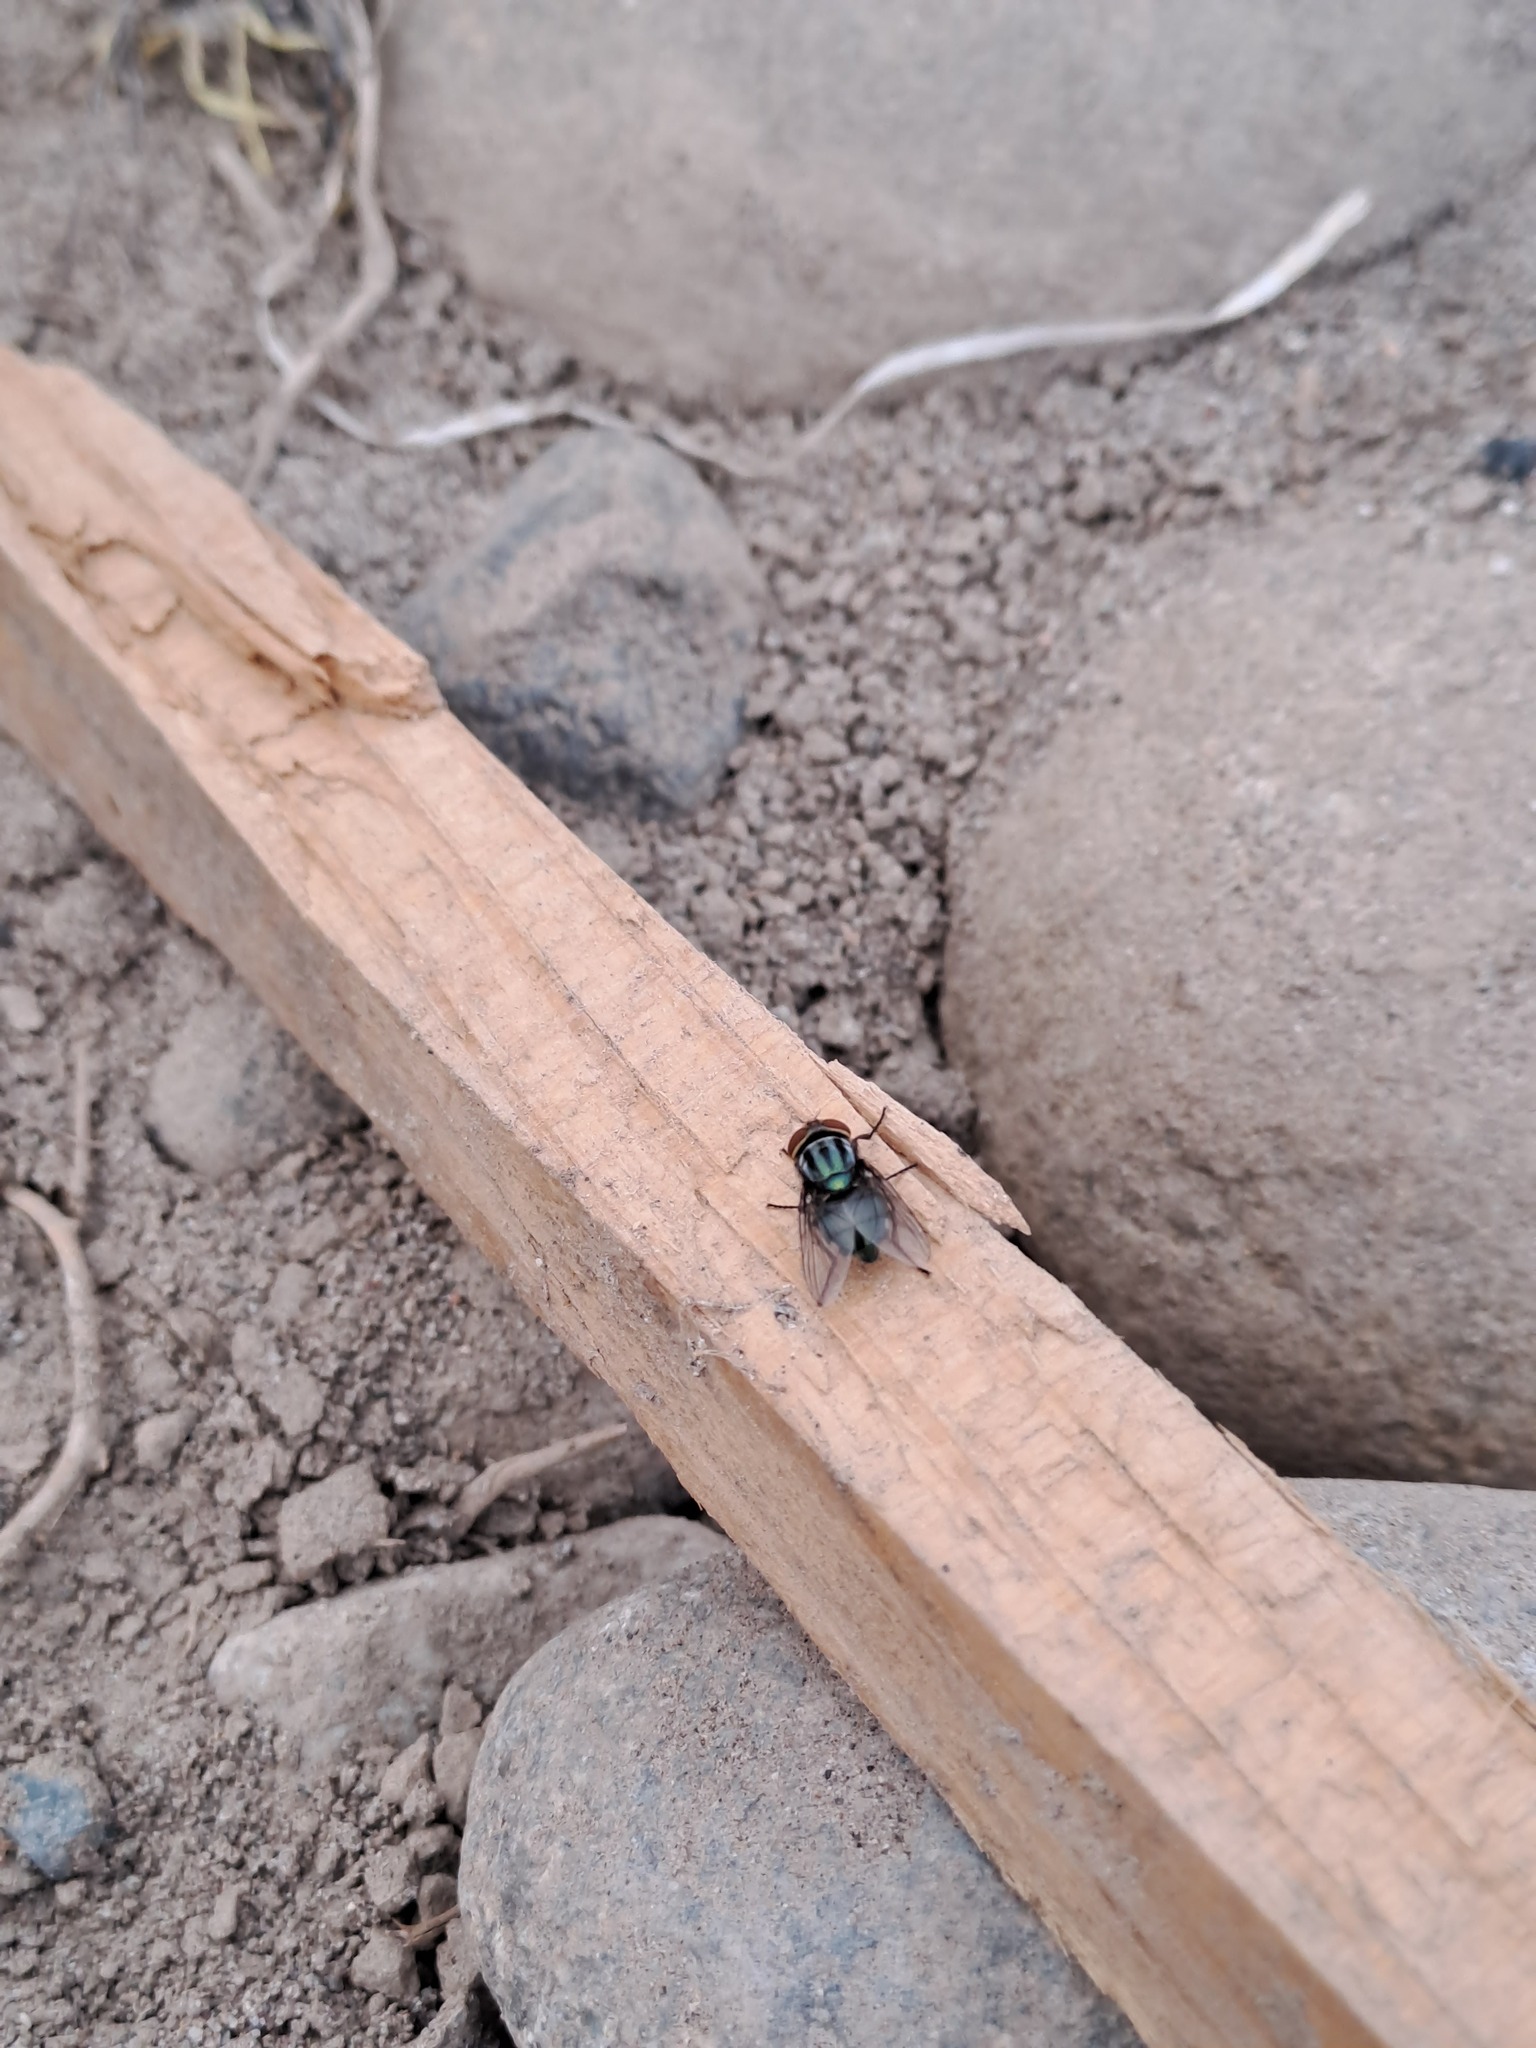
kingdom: Animalia
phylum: Arthropoda
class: Insecta
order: Diptera
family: Calliphoridae
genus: Cochliomyia
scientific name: Cochliomyia macellaria
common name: Secondary screwworm
